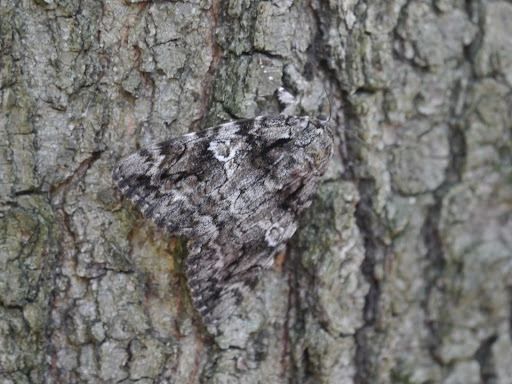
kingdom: Animalia
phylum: Arthropoda
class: Insecta
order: Lepidoptera
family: Erebidae
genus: Catocala
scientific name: Catocala ilia
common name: Ilia underwing
